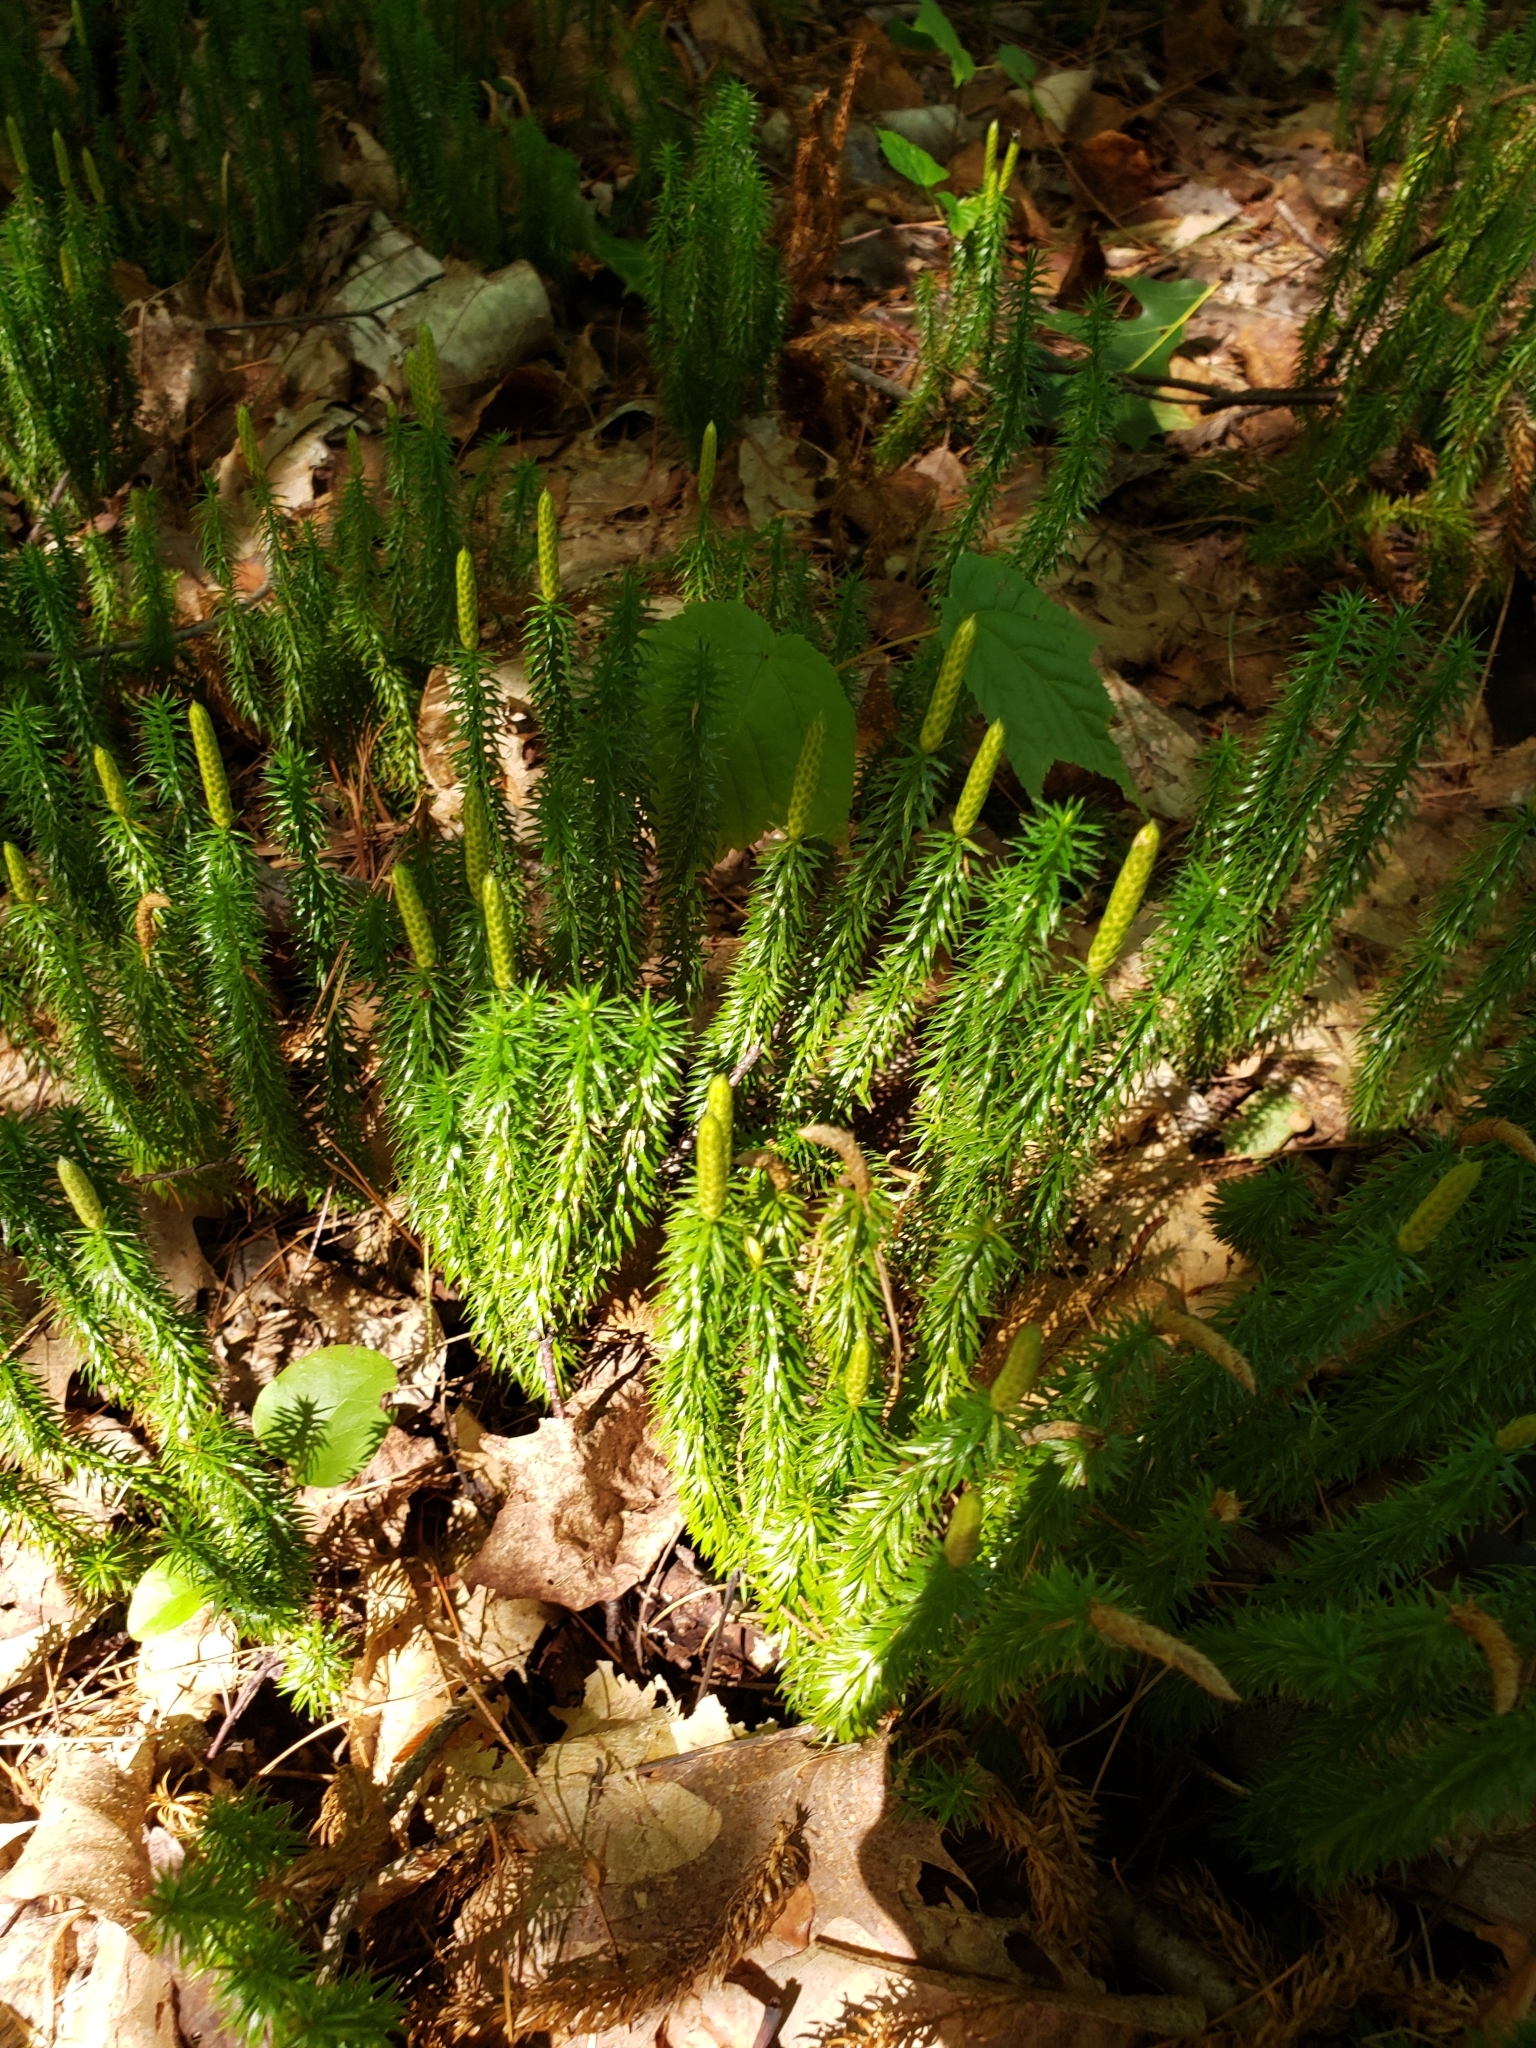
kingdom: Plantae
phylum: Tracheophyta
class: Lycopodiopsida
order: Lycopodiales
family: Lycopodiaceae
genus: Spinulum
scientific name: Spinulum annotinum
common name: Interrupted club-moss
